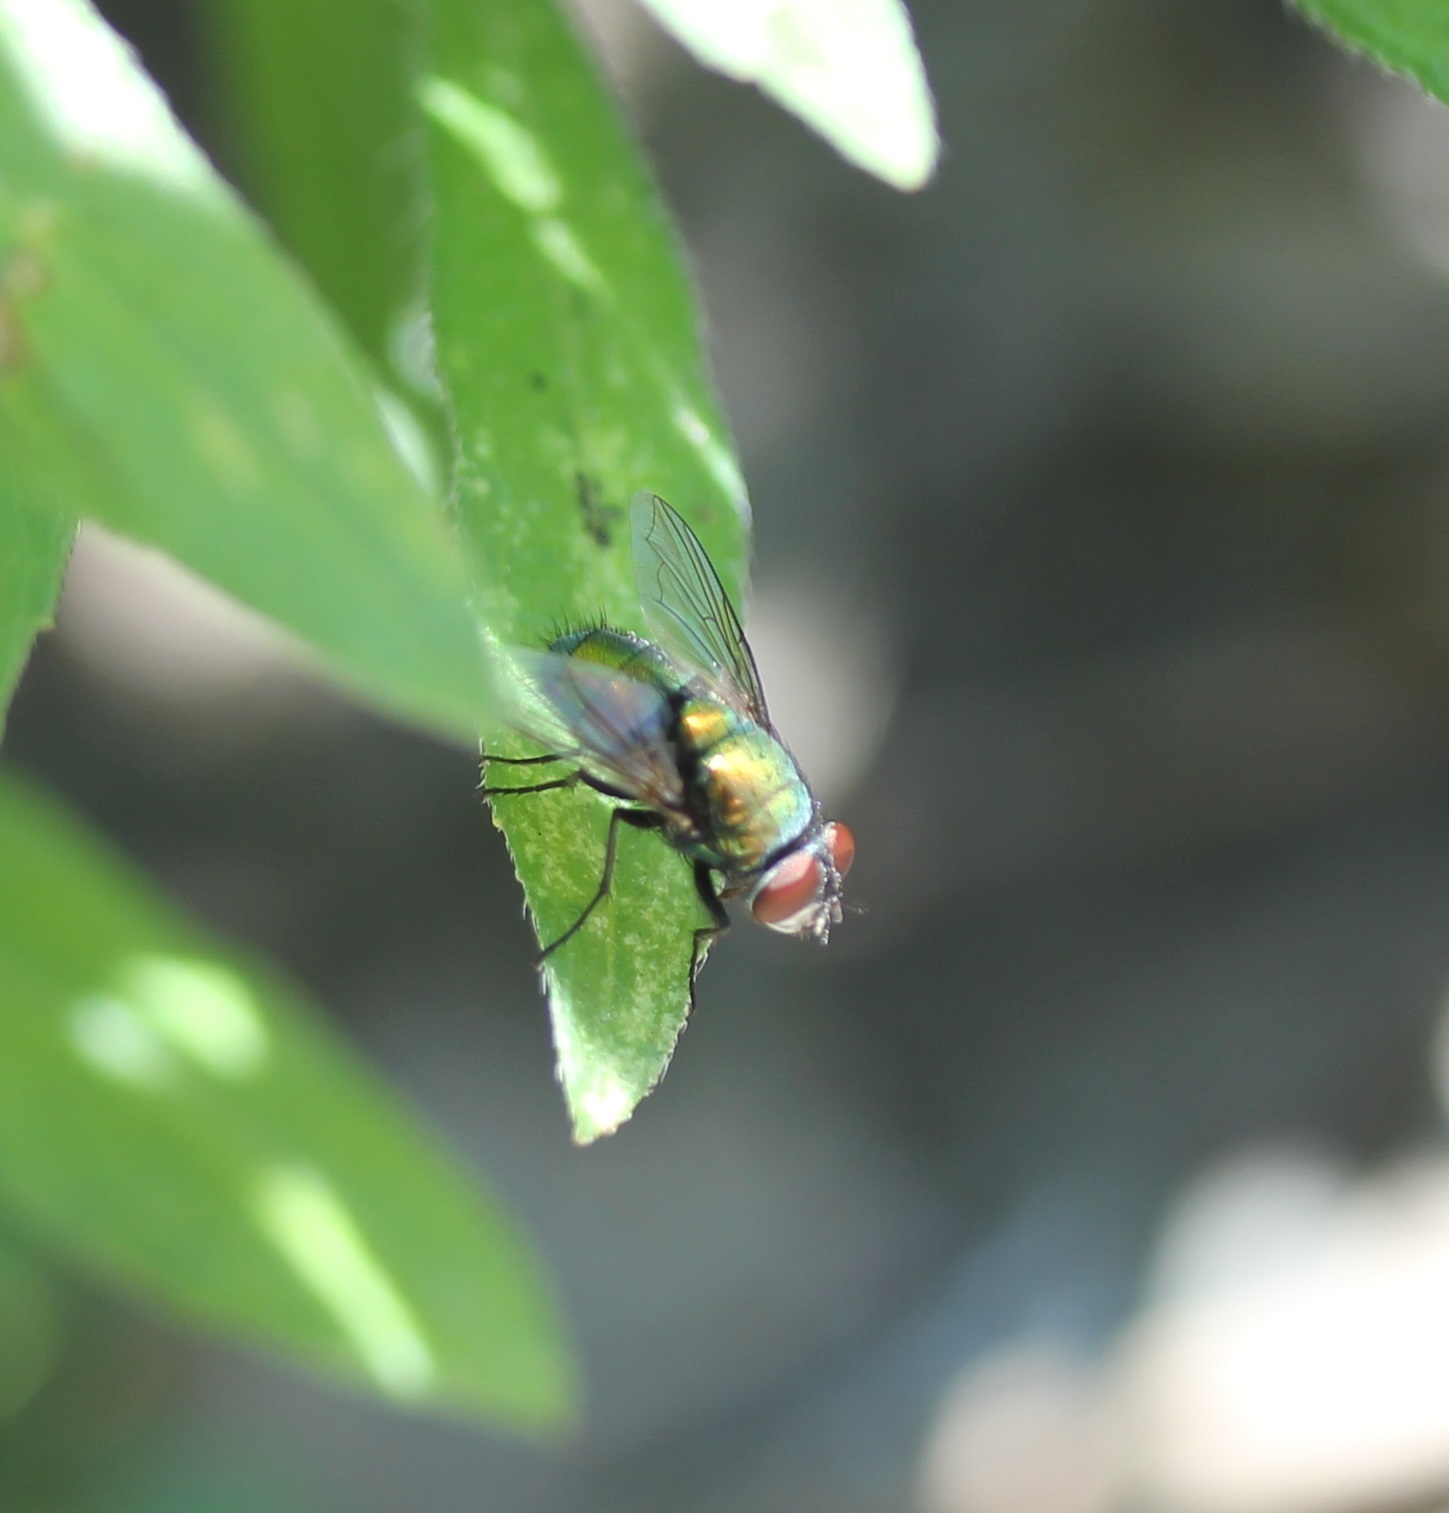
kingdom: Animalia
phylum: Arthropoda
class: Insecta
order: Diptera
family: Calliphoridae
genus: Lucilia
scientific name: Lucilia sericata
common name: Blow fly
